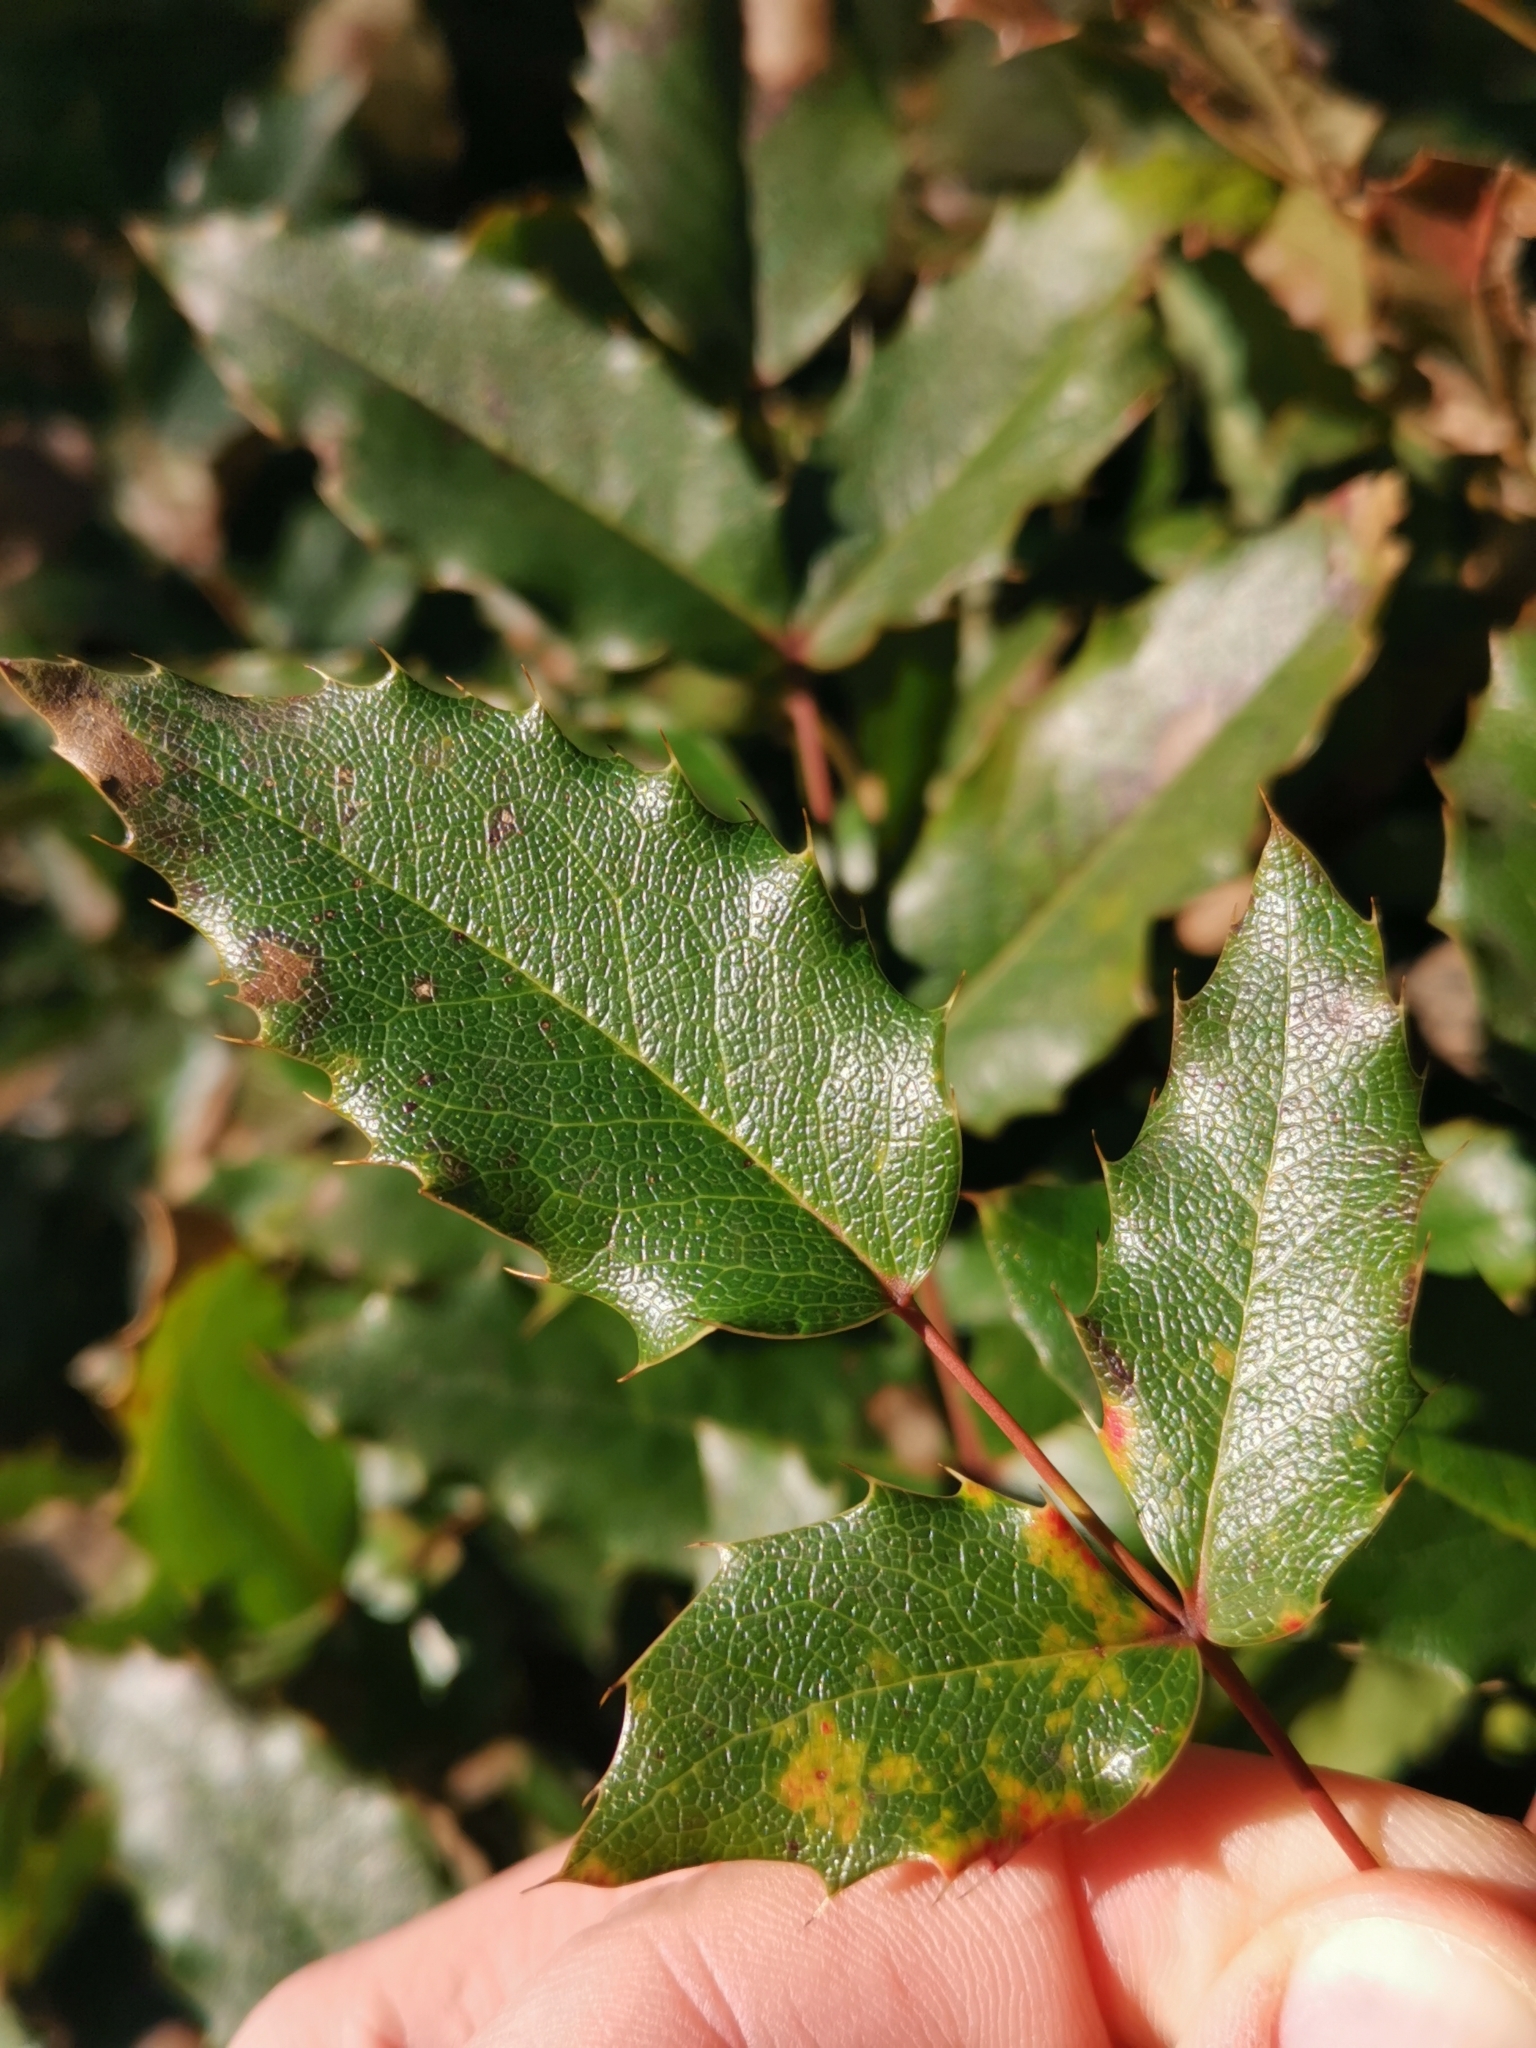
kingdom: Plantae
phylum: Tracheophyta
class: Magnoliopsida
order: Ranunculales
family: Berberidaceae
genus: Mahonia
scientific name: Mahonia aquifolium
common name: Oregon-grape
